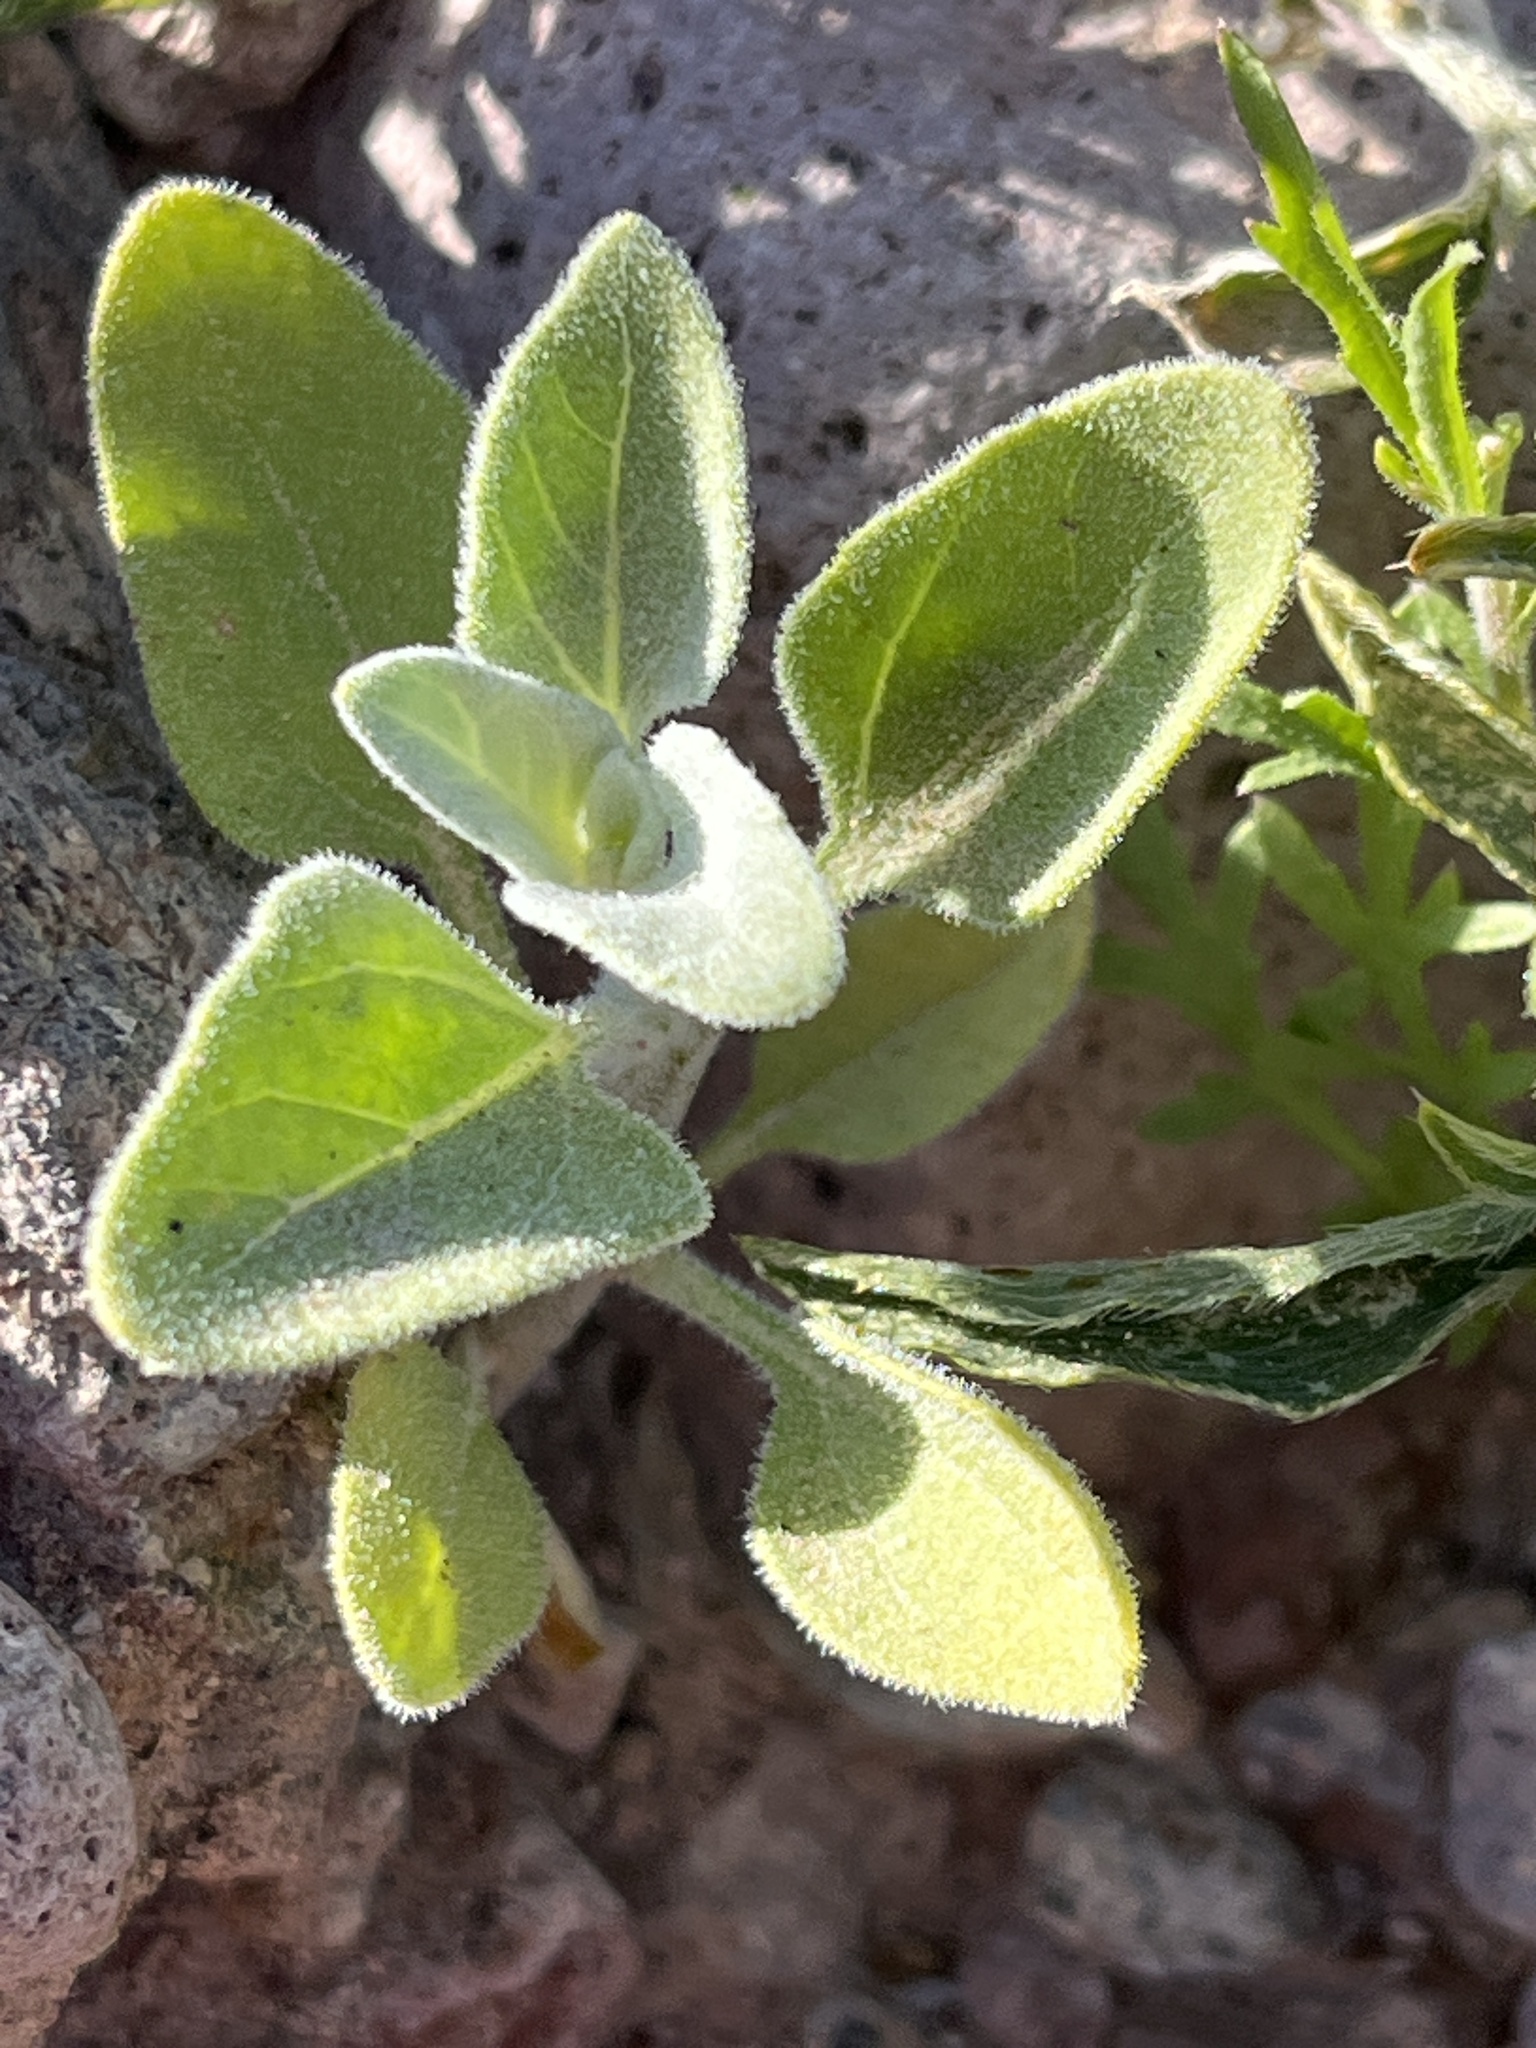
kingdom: Plantae
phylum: Tracheophyta
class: Magnoliopsida
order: Asterales
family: Asteraceae
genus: Encelia
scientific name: Encelia farinosa
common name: Brittlebush
